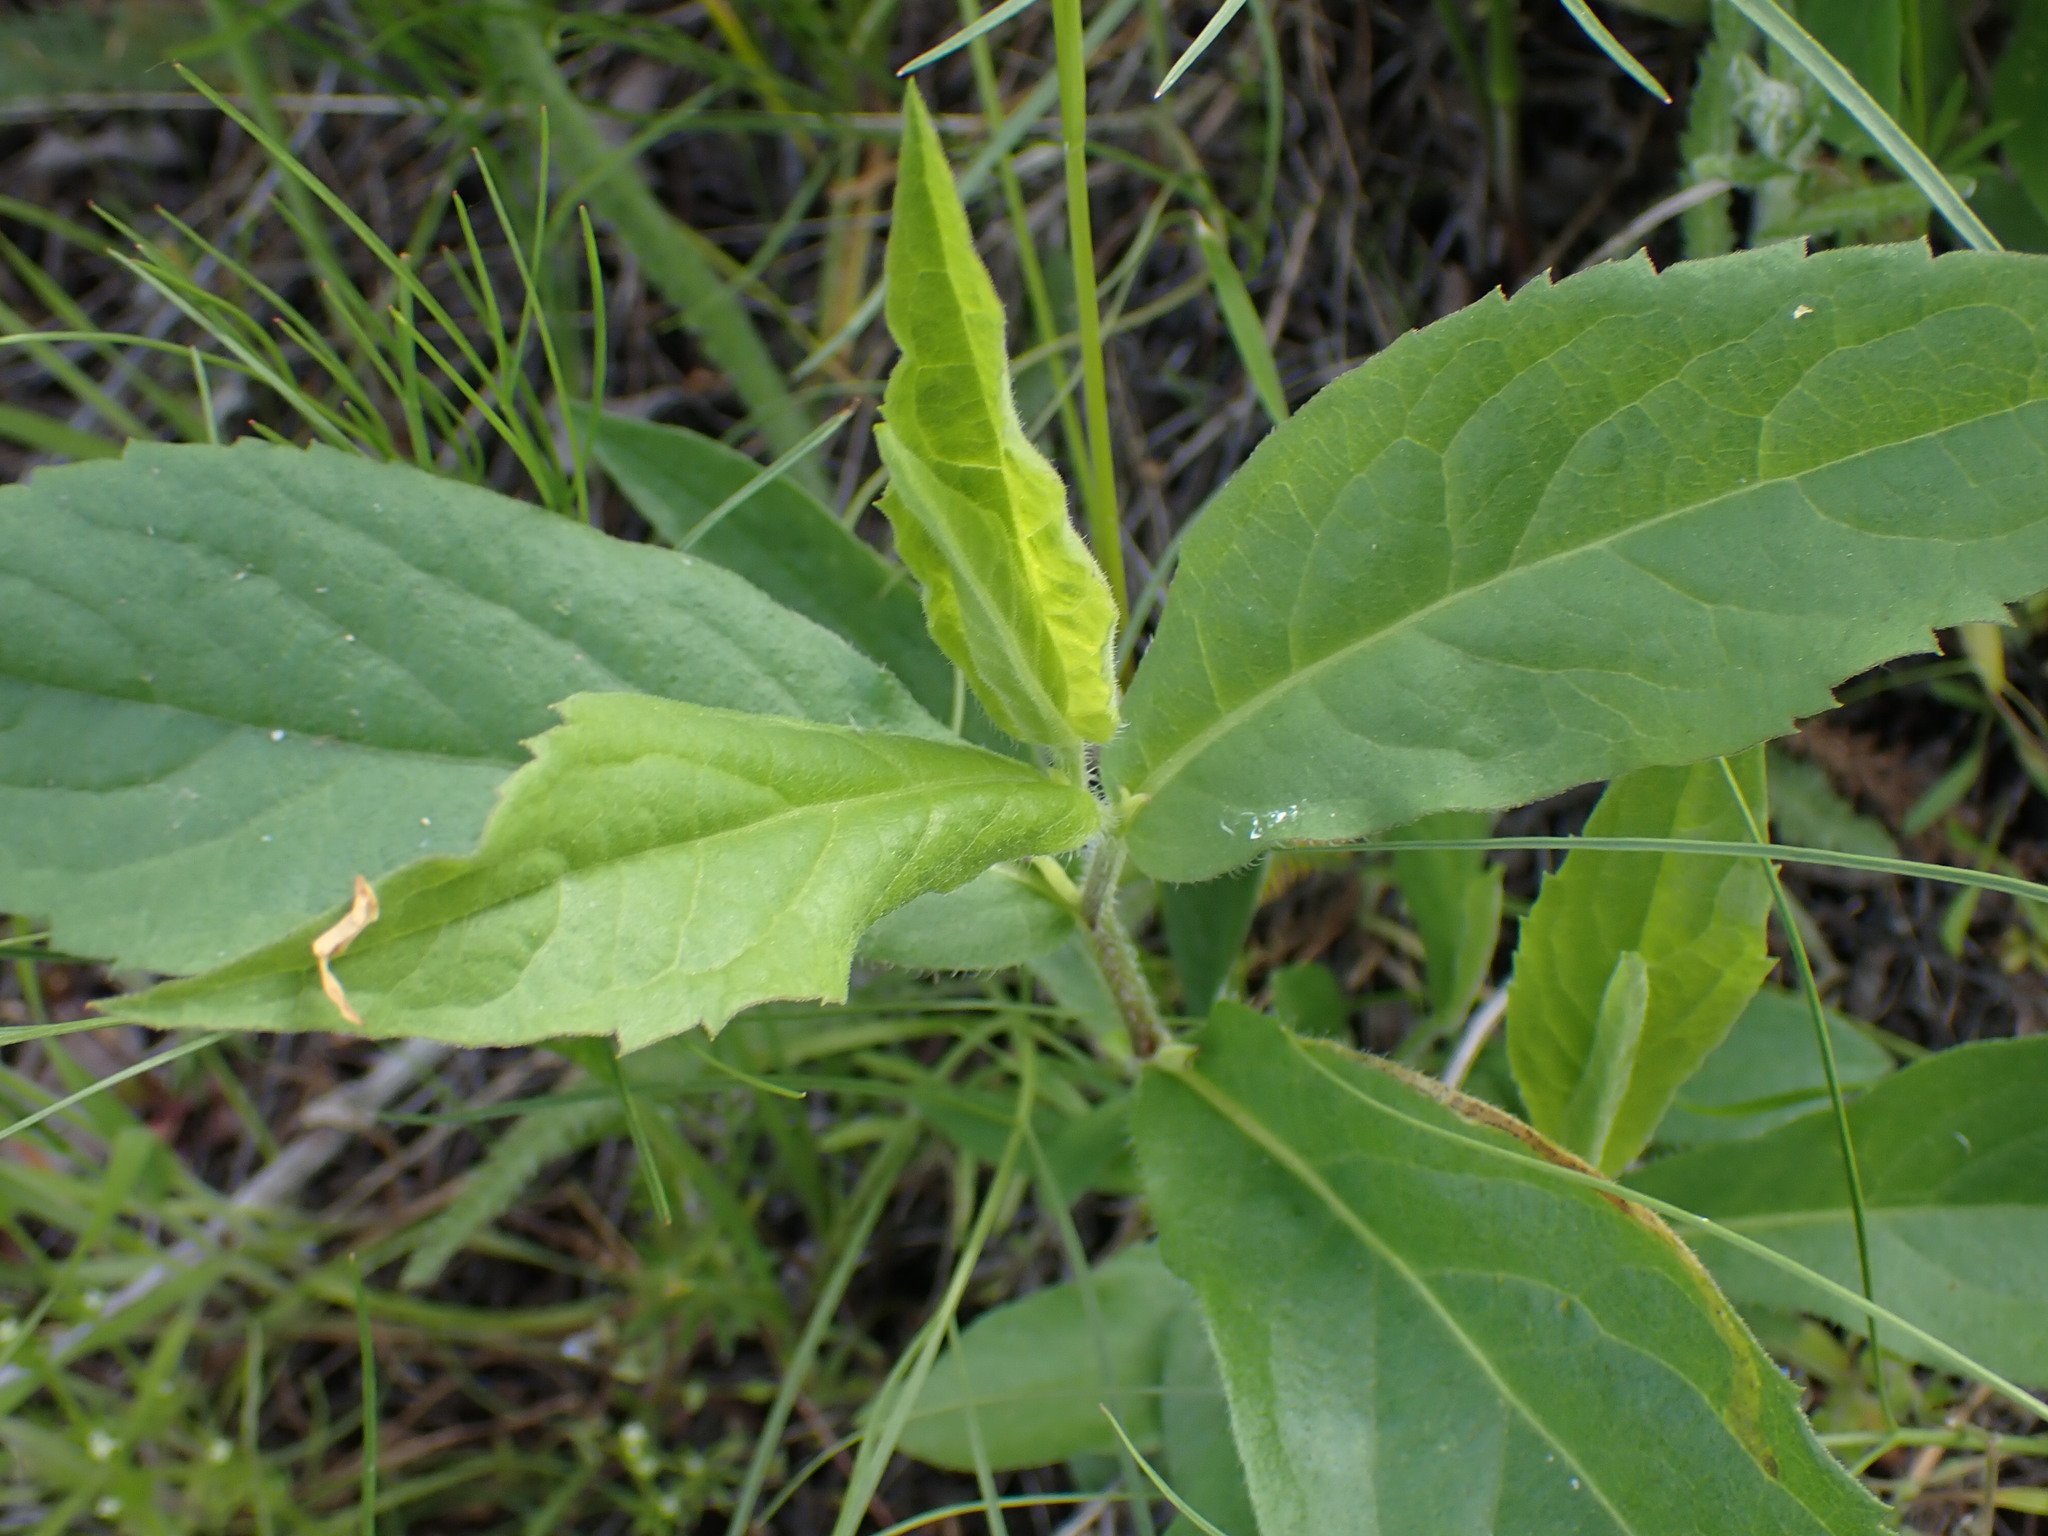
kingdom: Plantae
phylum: Tracheophyta
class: Magnoliopsida
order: Asterales
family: Asteraceae
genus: Eurybia
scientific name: Eurybia conspicua
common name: Showy aster
